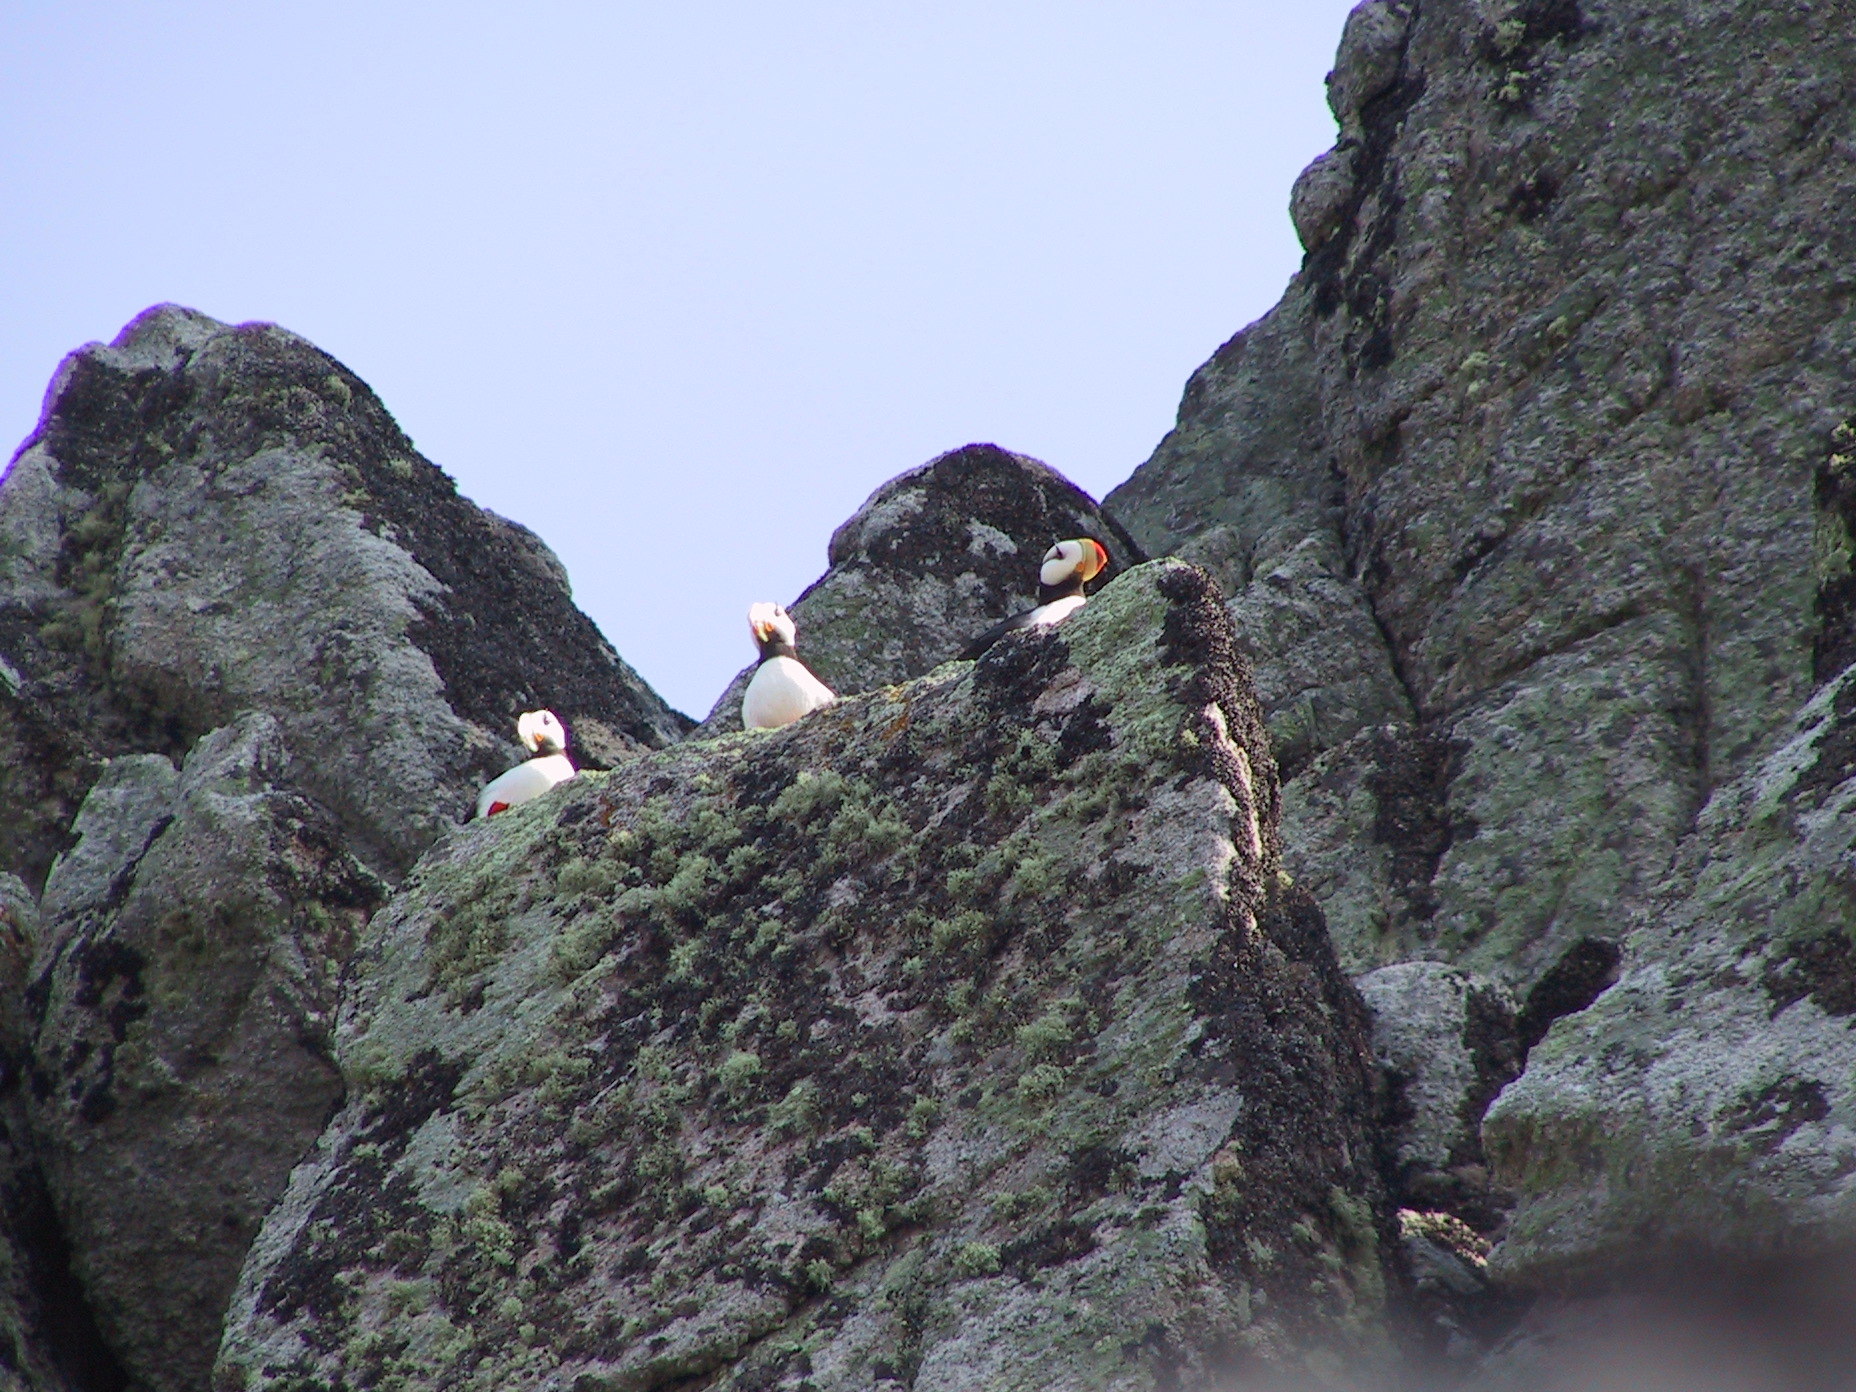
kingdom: Animalia
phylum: Chordata
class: Aves
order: Charadriiformes
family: Alcidae
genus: Fratercula
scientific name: Fratercula corniculata
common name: Horned puffin
